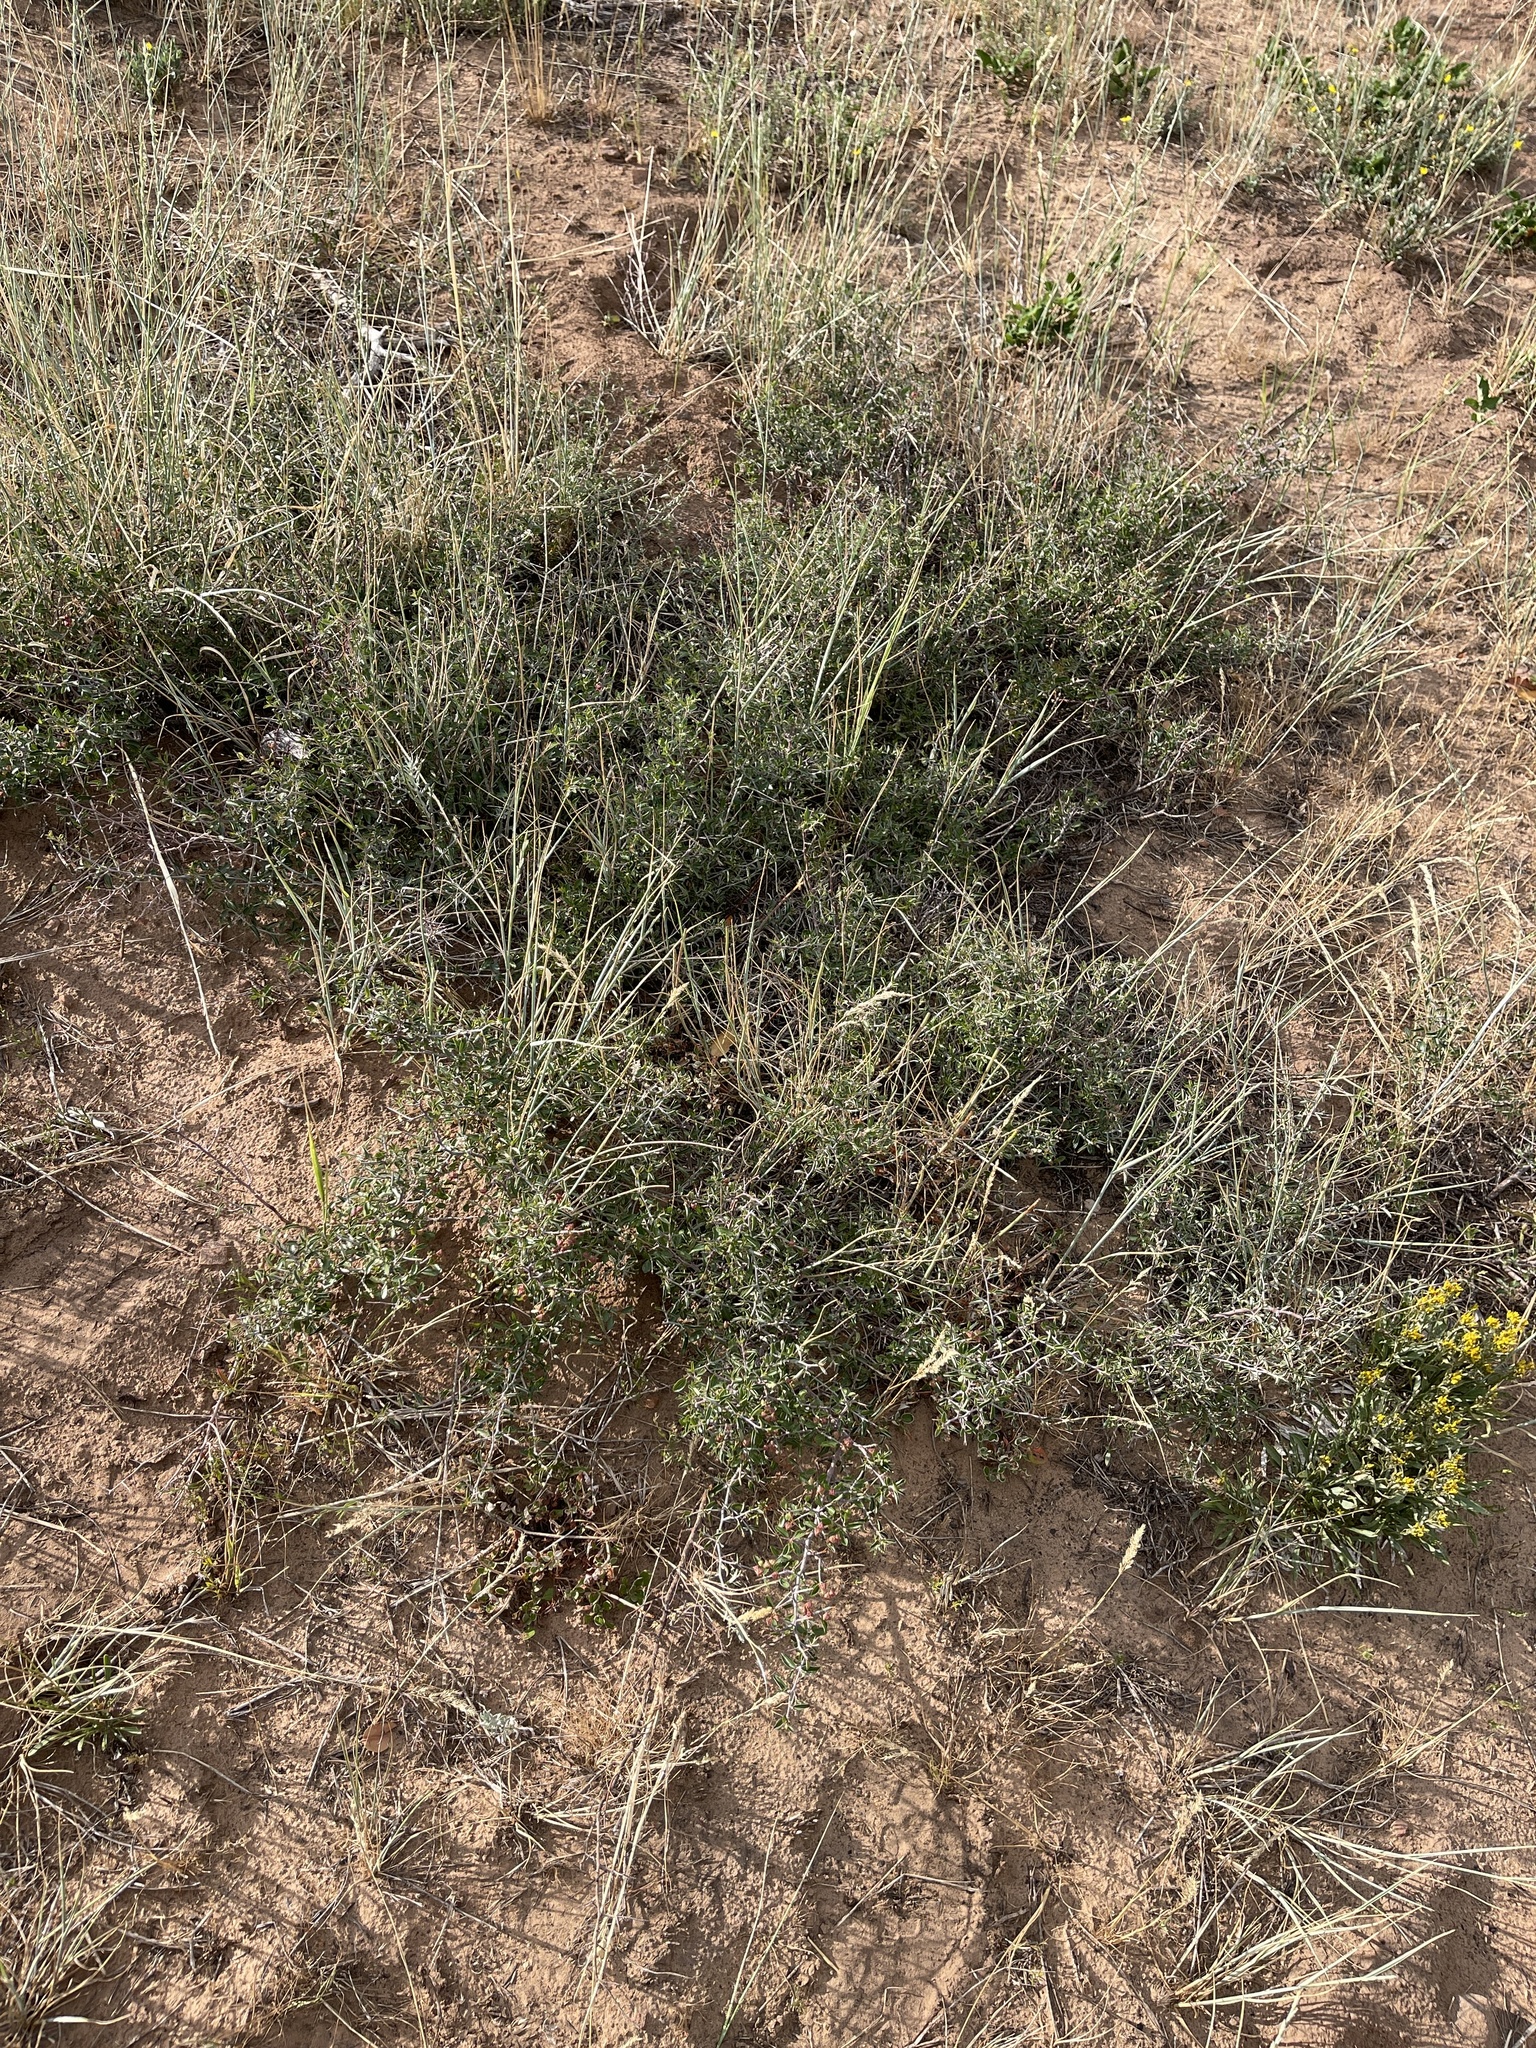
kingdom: Plantae
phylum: Tracheophyta
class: Magnoliopsida
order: Rosales
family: Rhamnaceae
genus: Ceanothus
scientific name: Ceanothus fendleri
